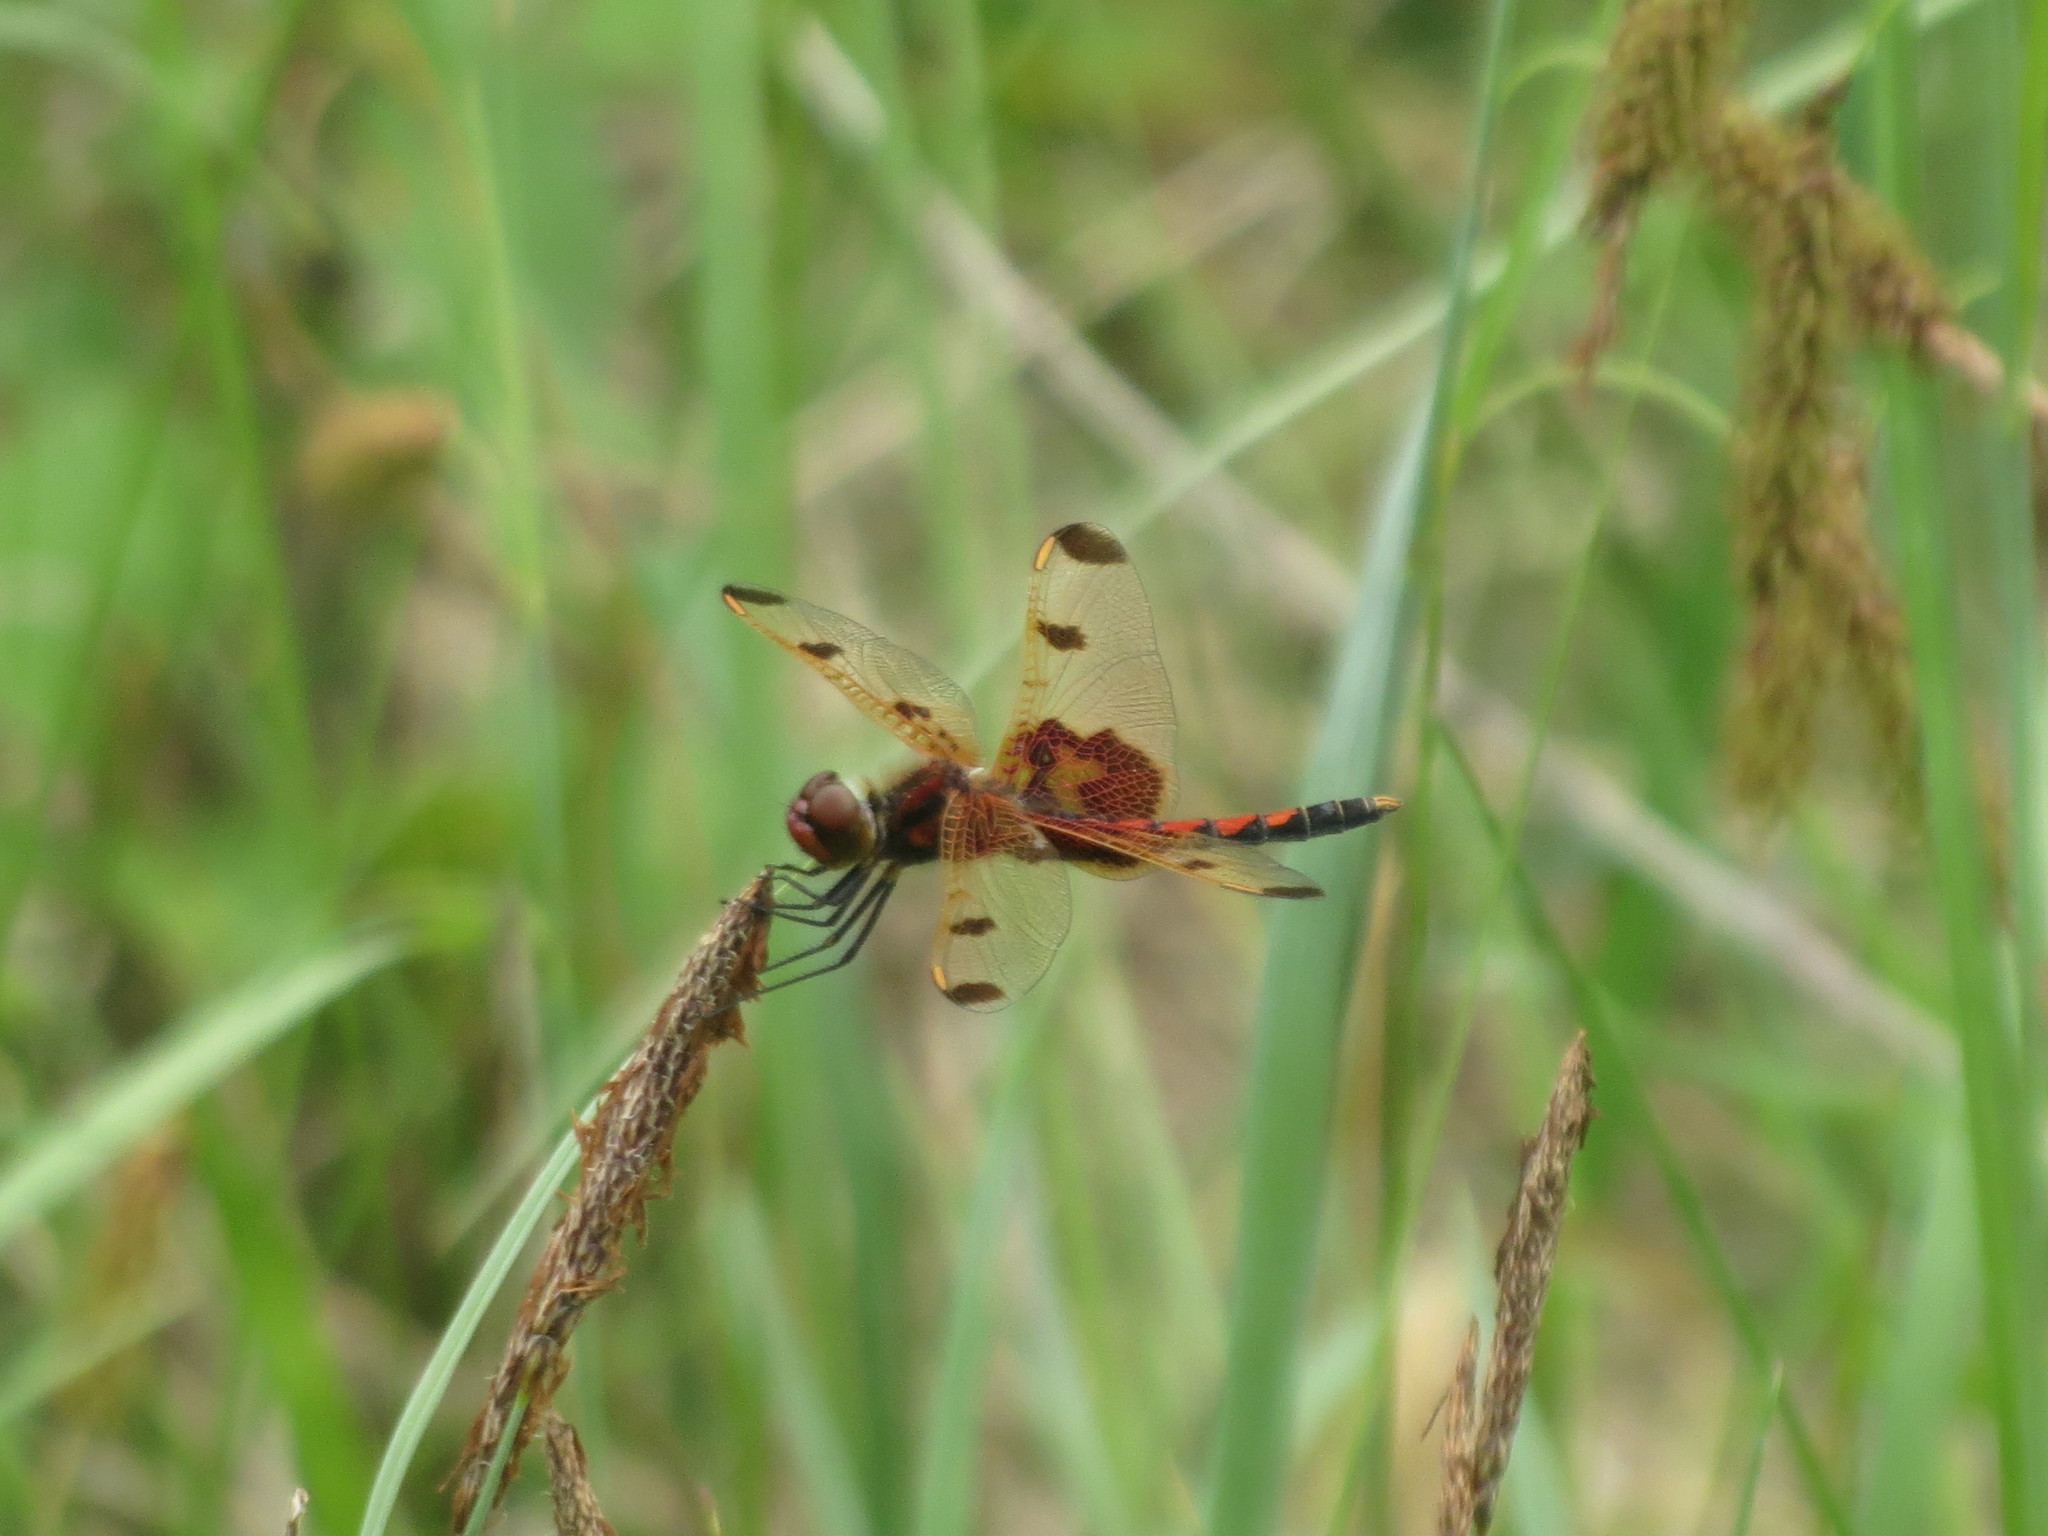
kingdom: Animalia
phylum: Arthropoda
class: Insecta
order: Odonata
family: Libellulidae
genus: Celithemis
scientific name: Celithemis elisa
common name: Calico pennant
